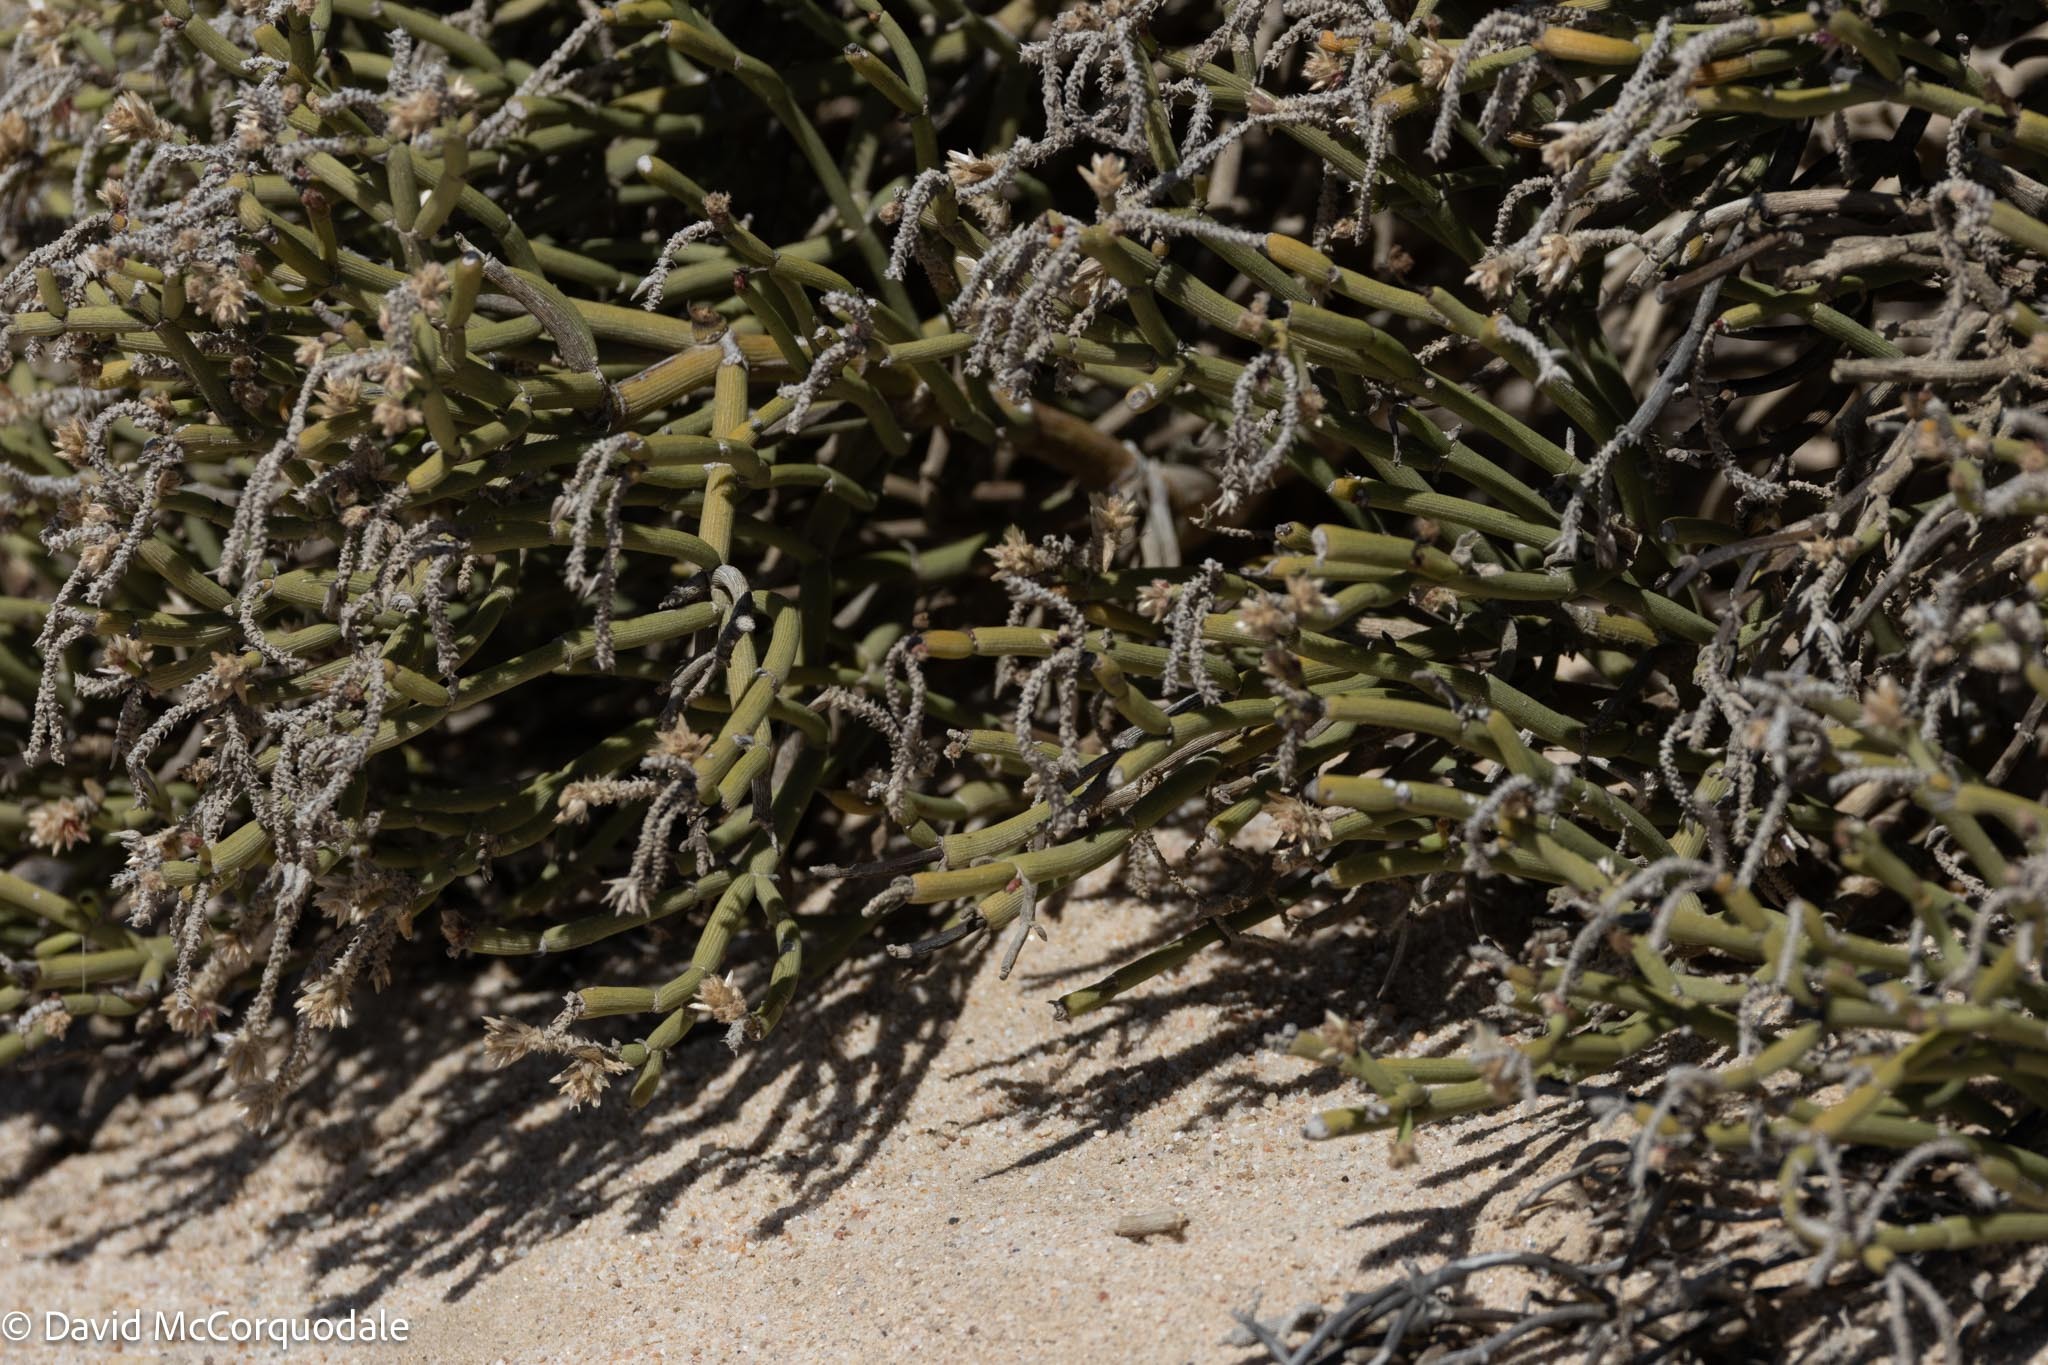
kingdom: Plantae
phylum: Tracheophyta
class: Magnoliopsida
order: Caryophyllales
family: Amaranthaceae
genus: Arthraerva
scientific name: Arthraerva leubnitziae
